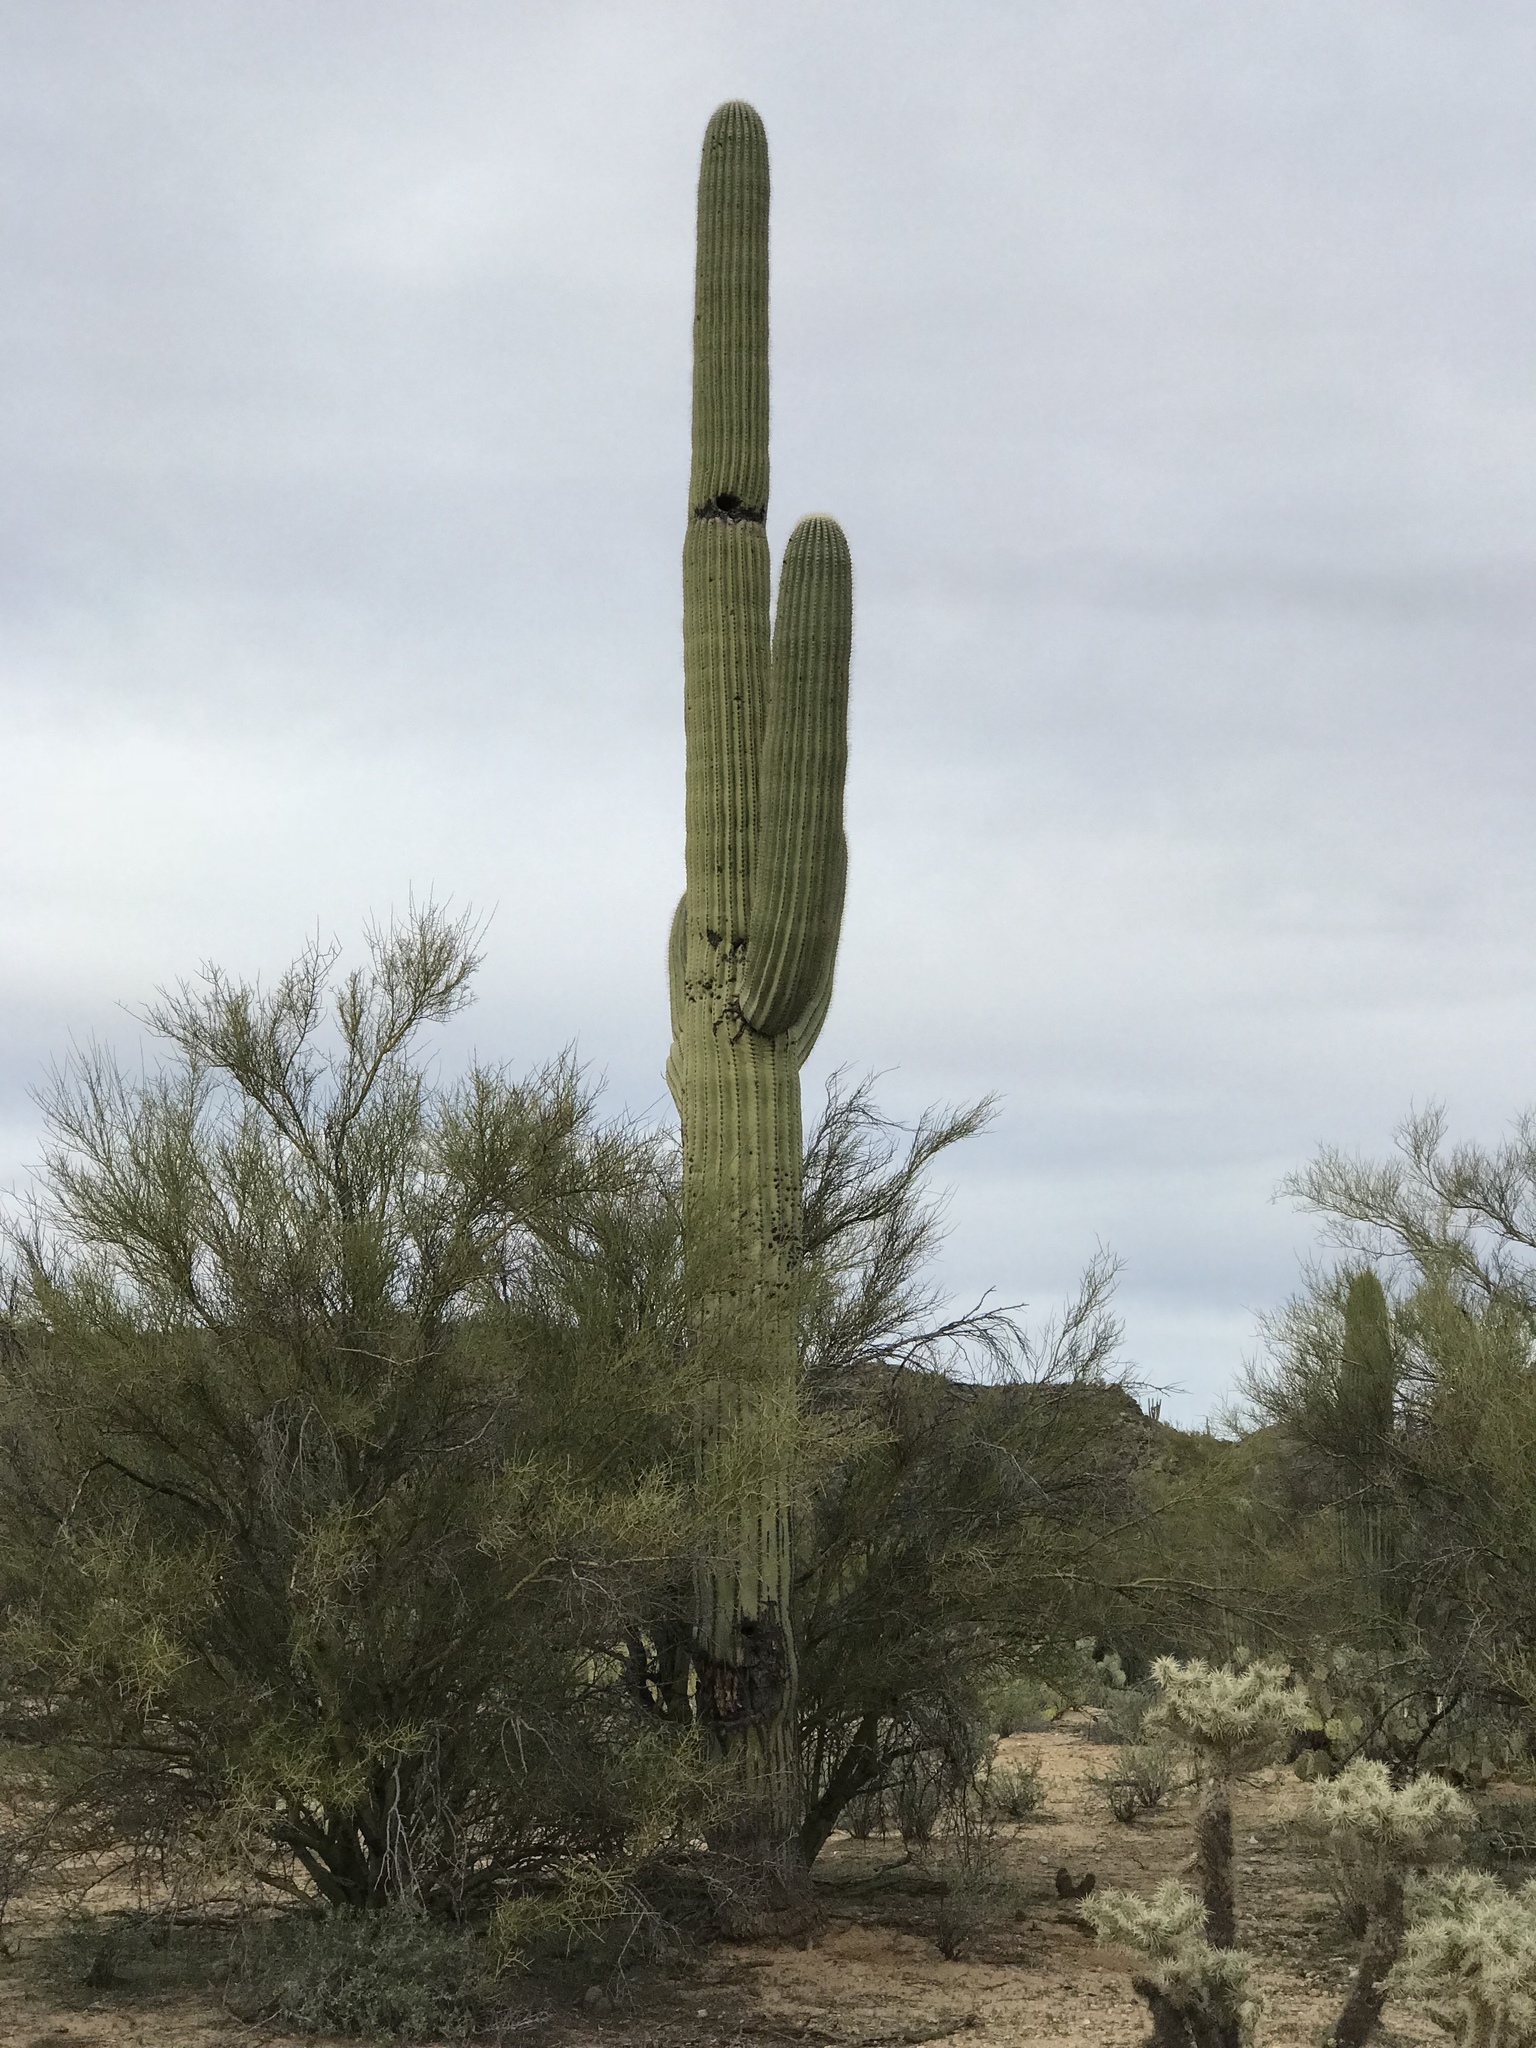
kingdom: Plantae
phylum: Tracheophyta
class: Magnoliopsida
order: Caryophyllales
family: Cactaceae
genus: Carnegiea
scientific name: Carnegiea gigantea
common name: Saguaro
